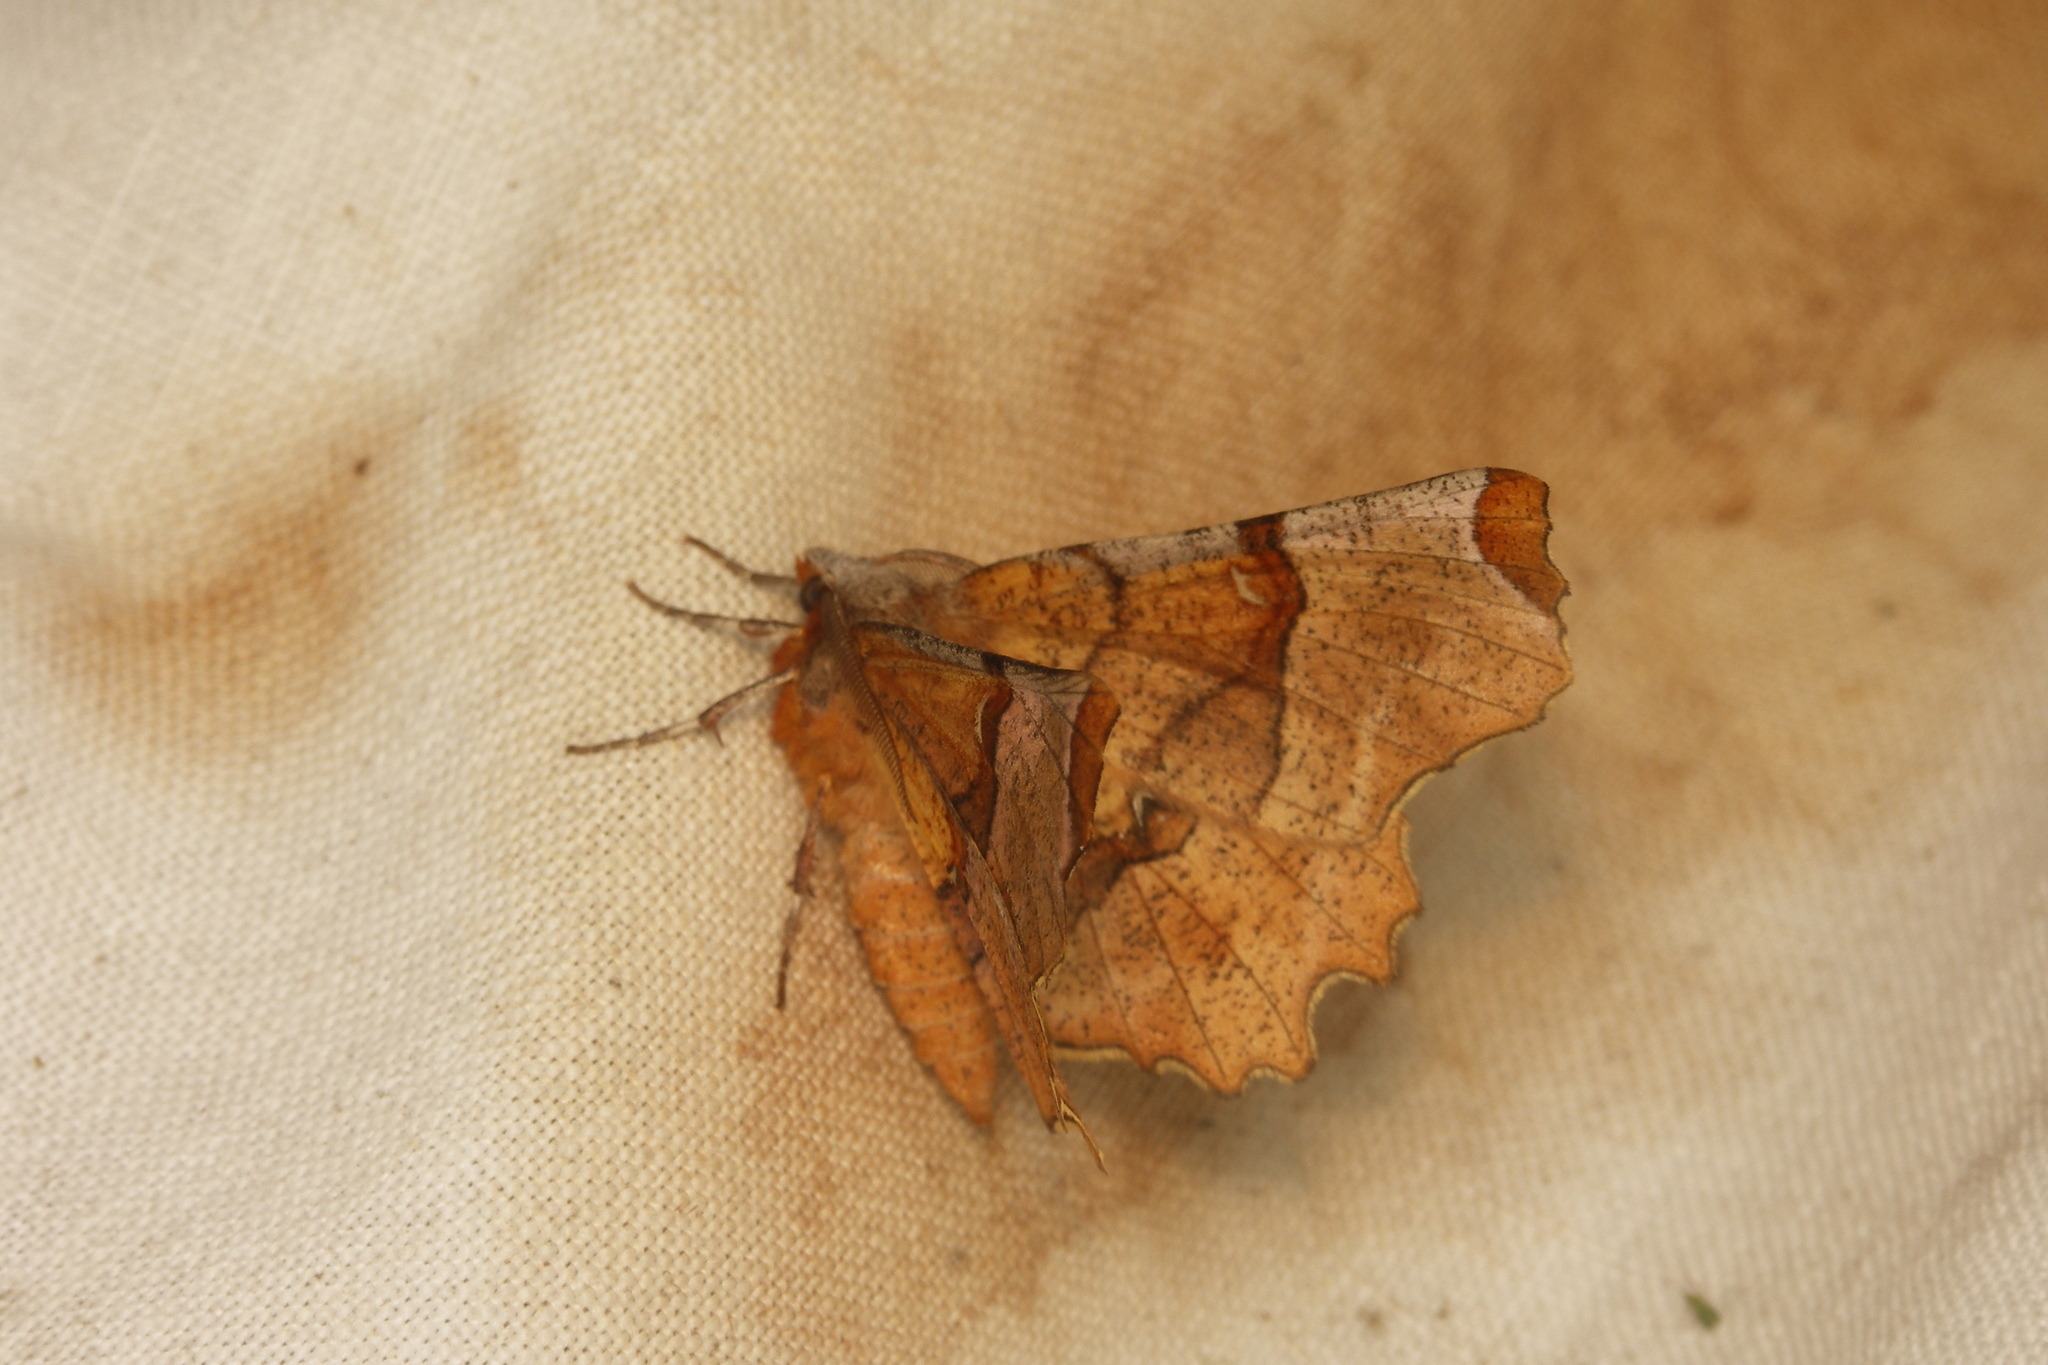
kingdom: Animalia
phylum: Arthropoda
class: Insecta
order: Lepidoptera
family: Geometridae
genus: Selenia
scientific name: Selenia lunularia
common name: Lunar thorn
